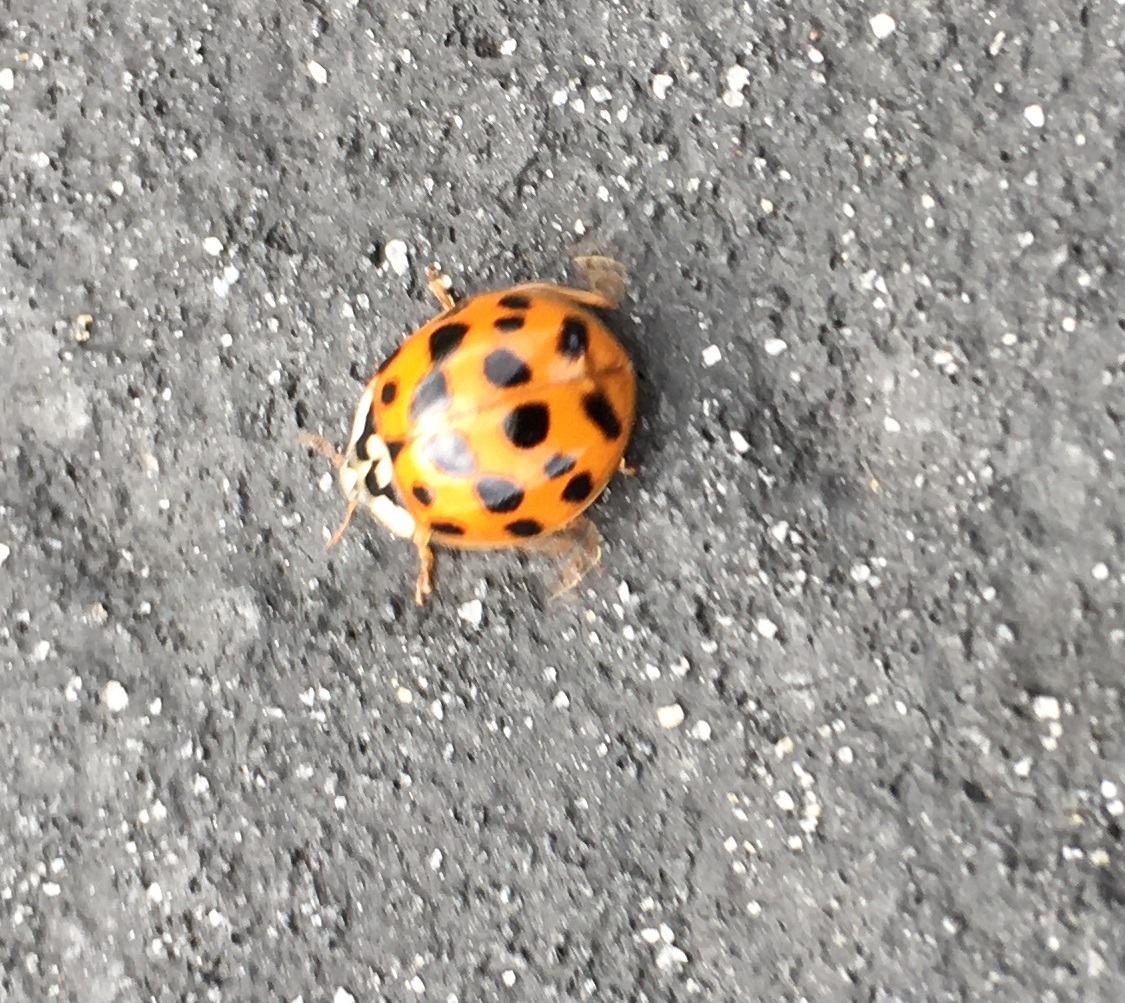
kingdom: Animalia
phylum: Arthropoda
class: Insecta
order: Coleoptera
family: Coccinellidae
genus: Harmonia
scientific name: Harmonia axyridis
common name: Harlequin ladybird
